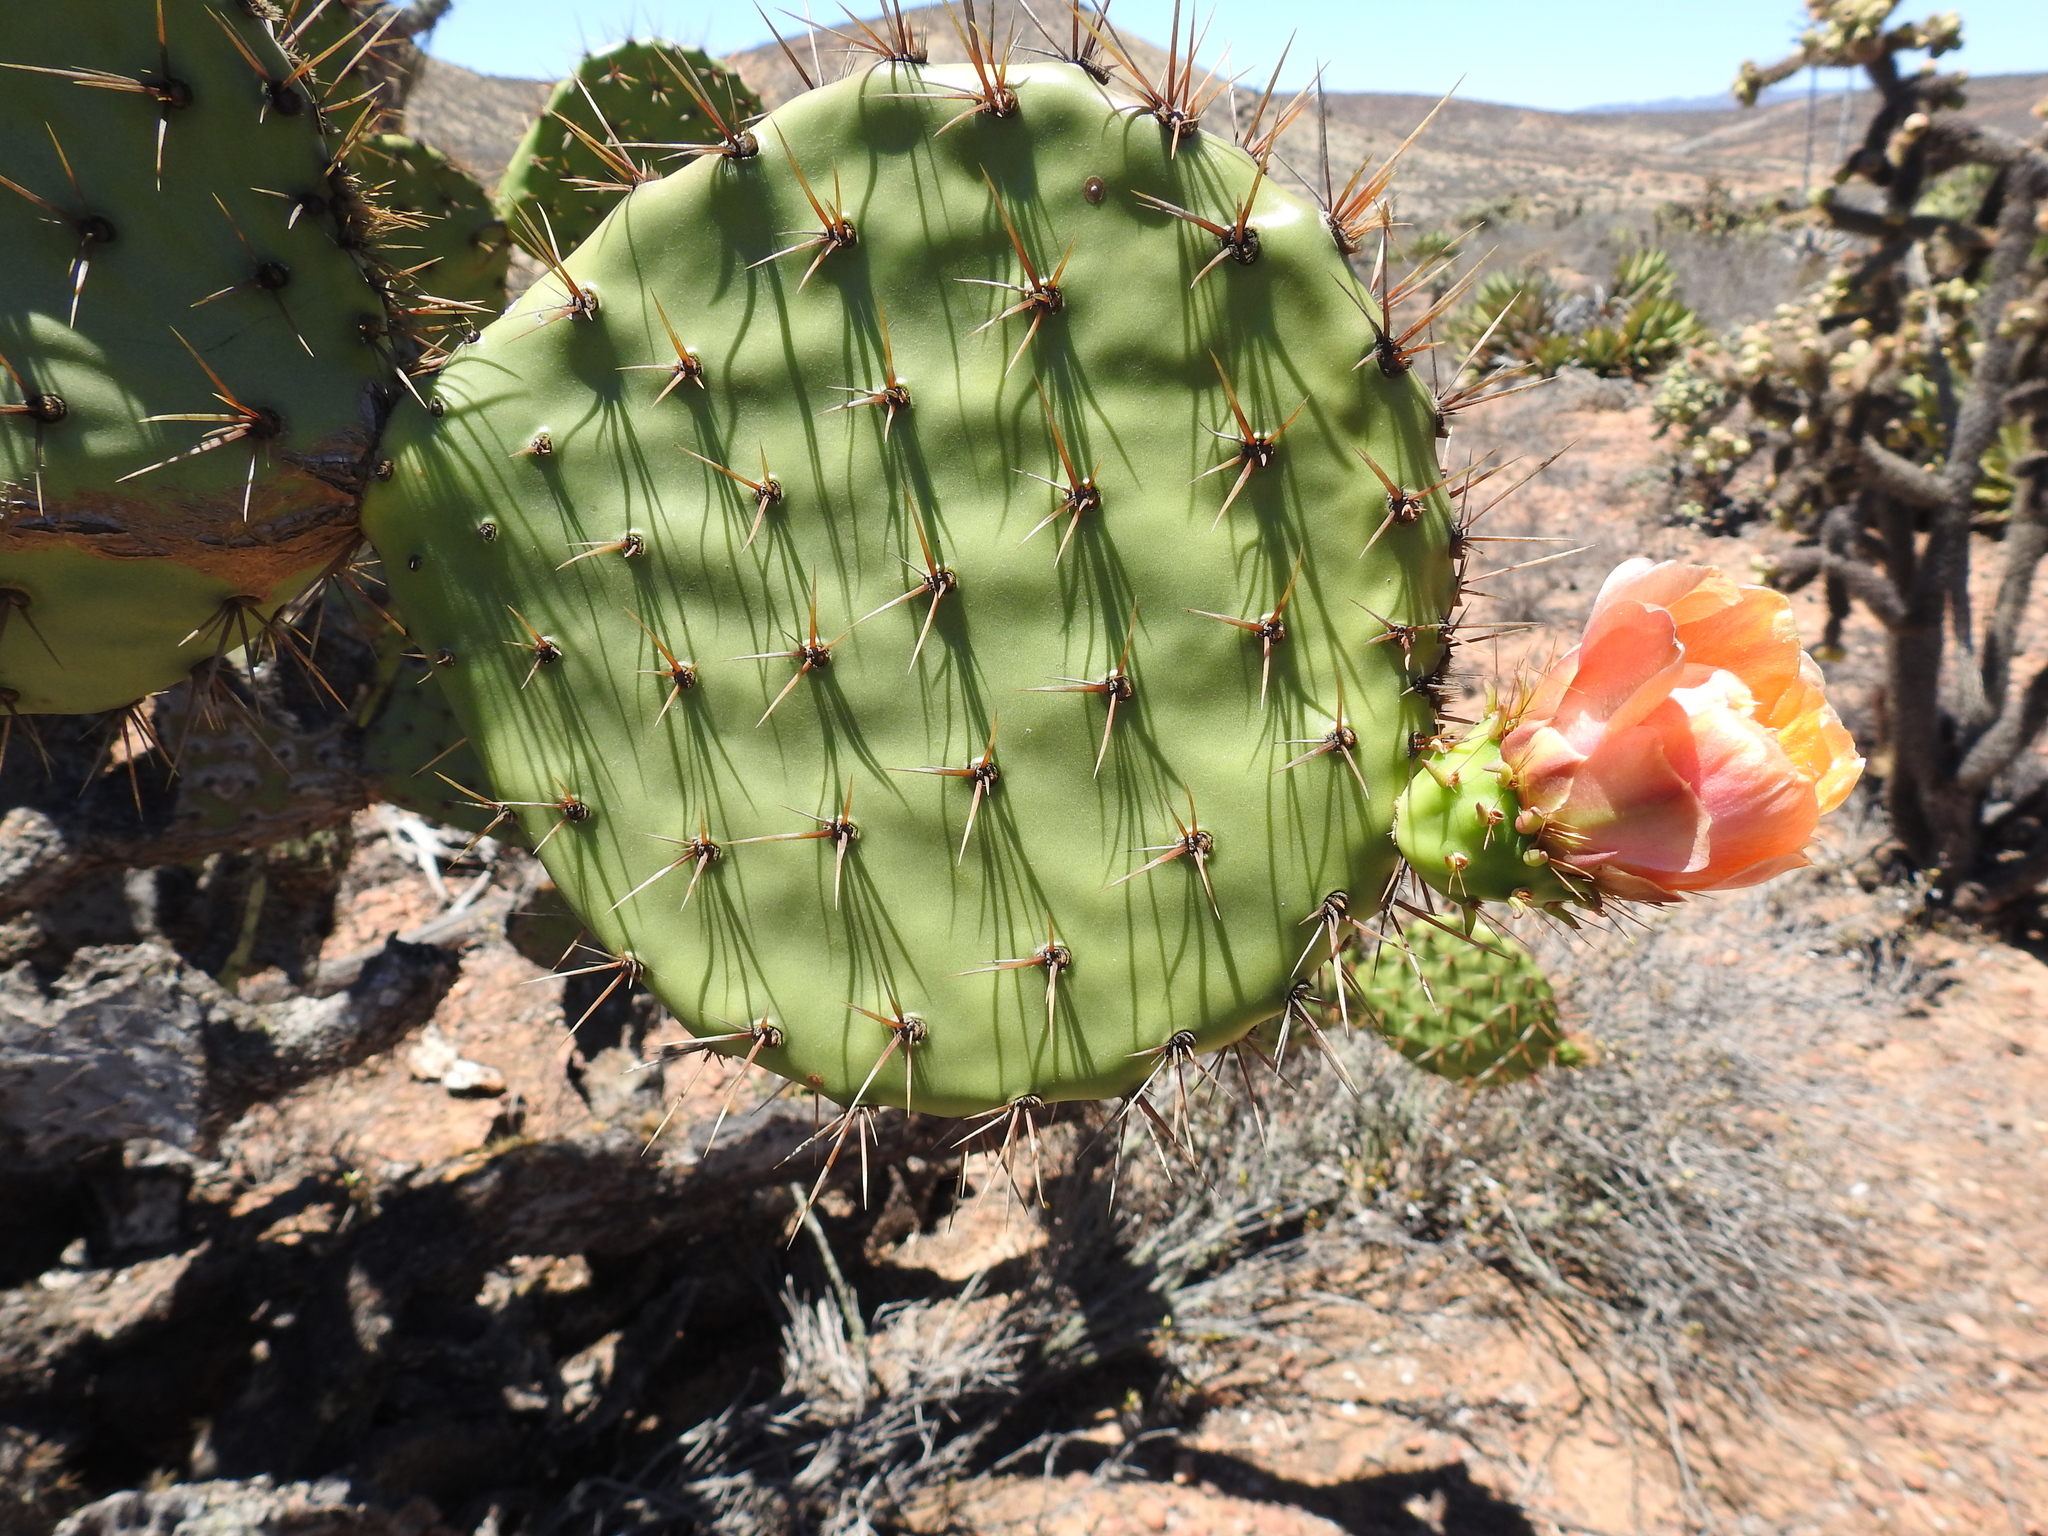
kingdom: Plantae
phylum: Tracheophyta
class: Magnoliopsida
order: Caryophyllales
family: Cactaceae
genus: Opuntia
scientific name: Opuntia clarkiorum
